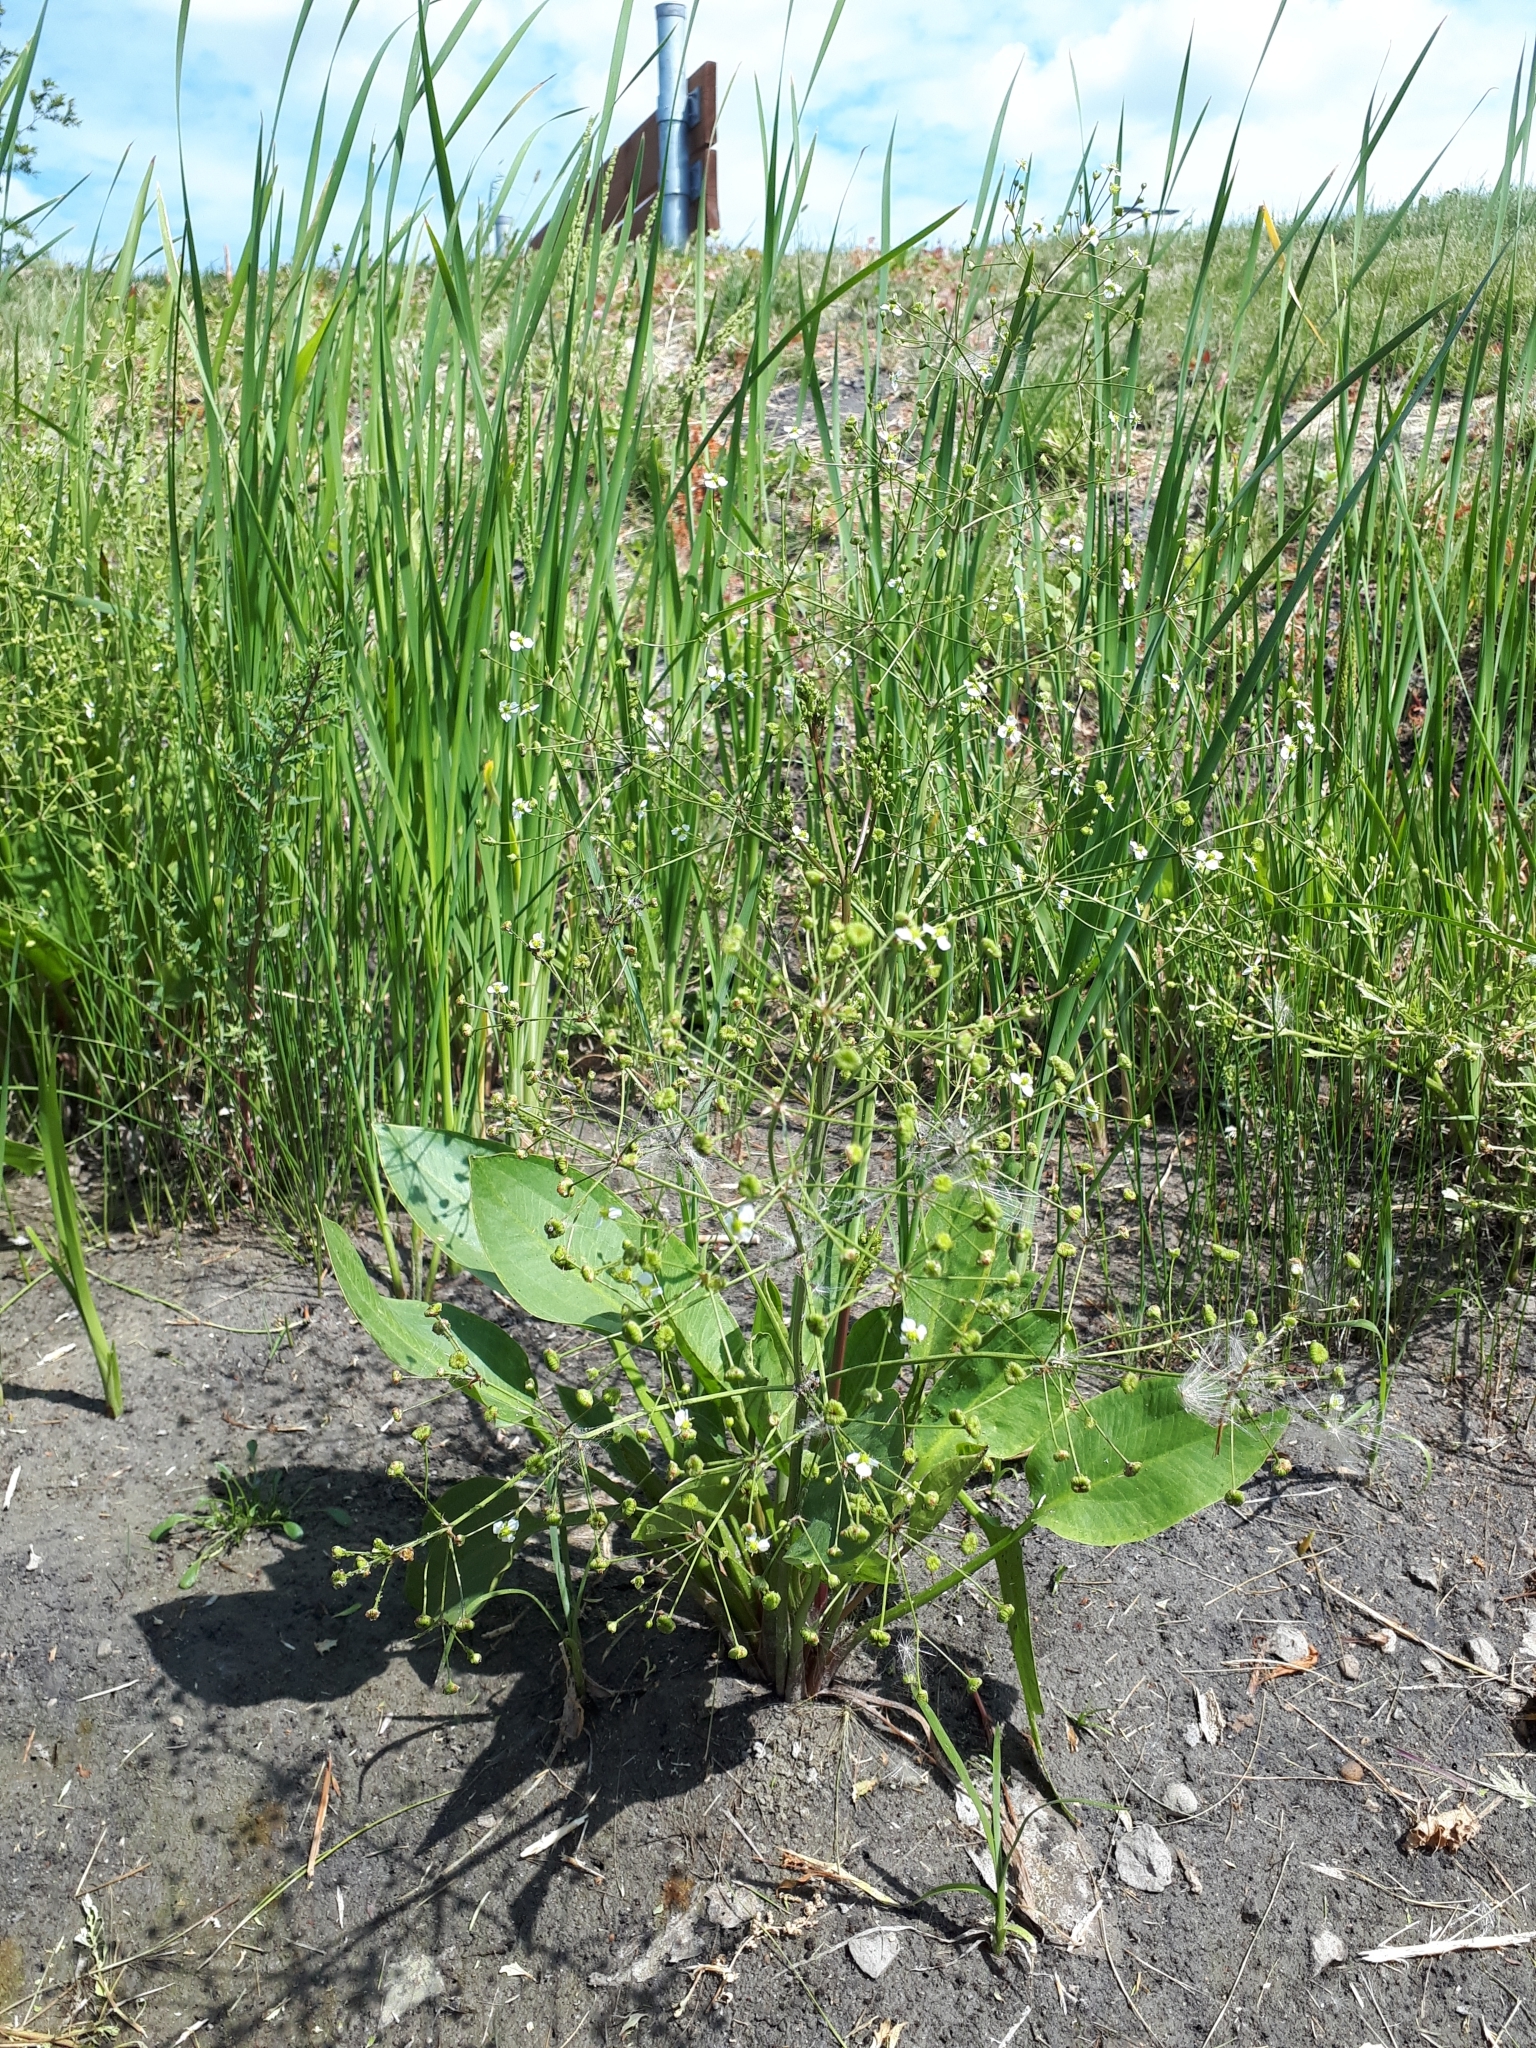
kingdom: Plantae
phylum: Tracheophyta
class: Liliopsida
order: Alismatales
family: Alismataceae
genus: Alisma
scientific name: Alisma triviale
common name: Northern water-plantain
